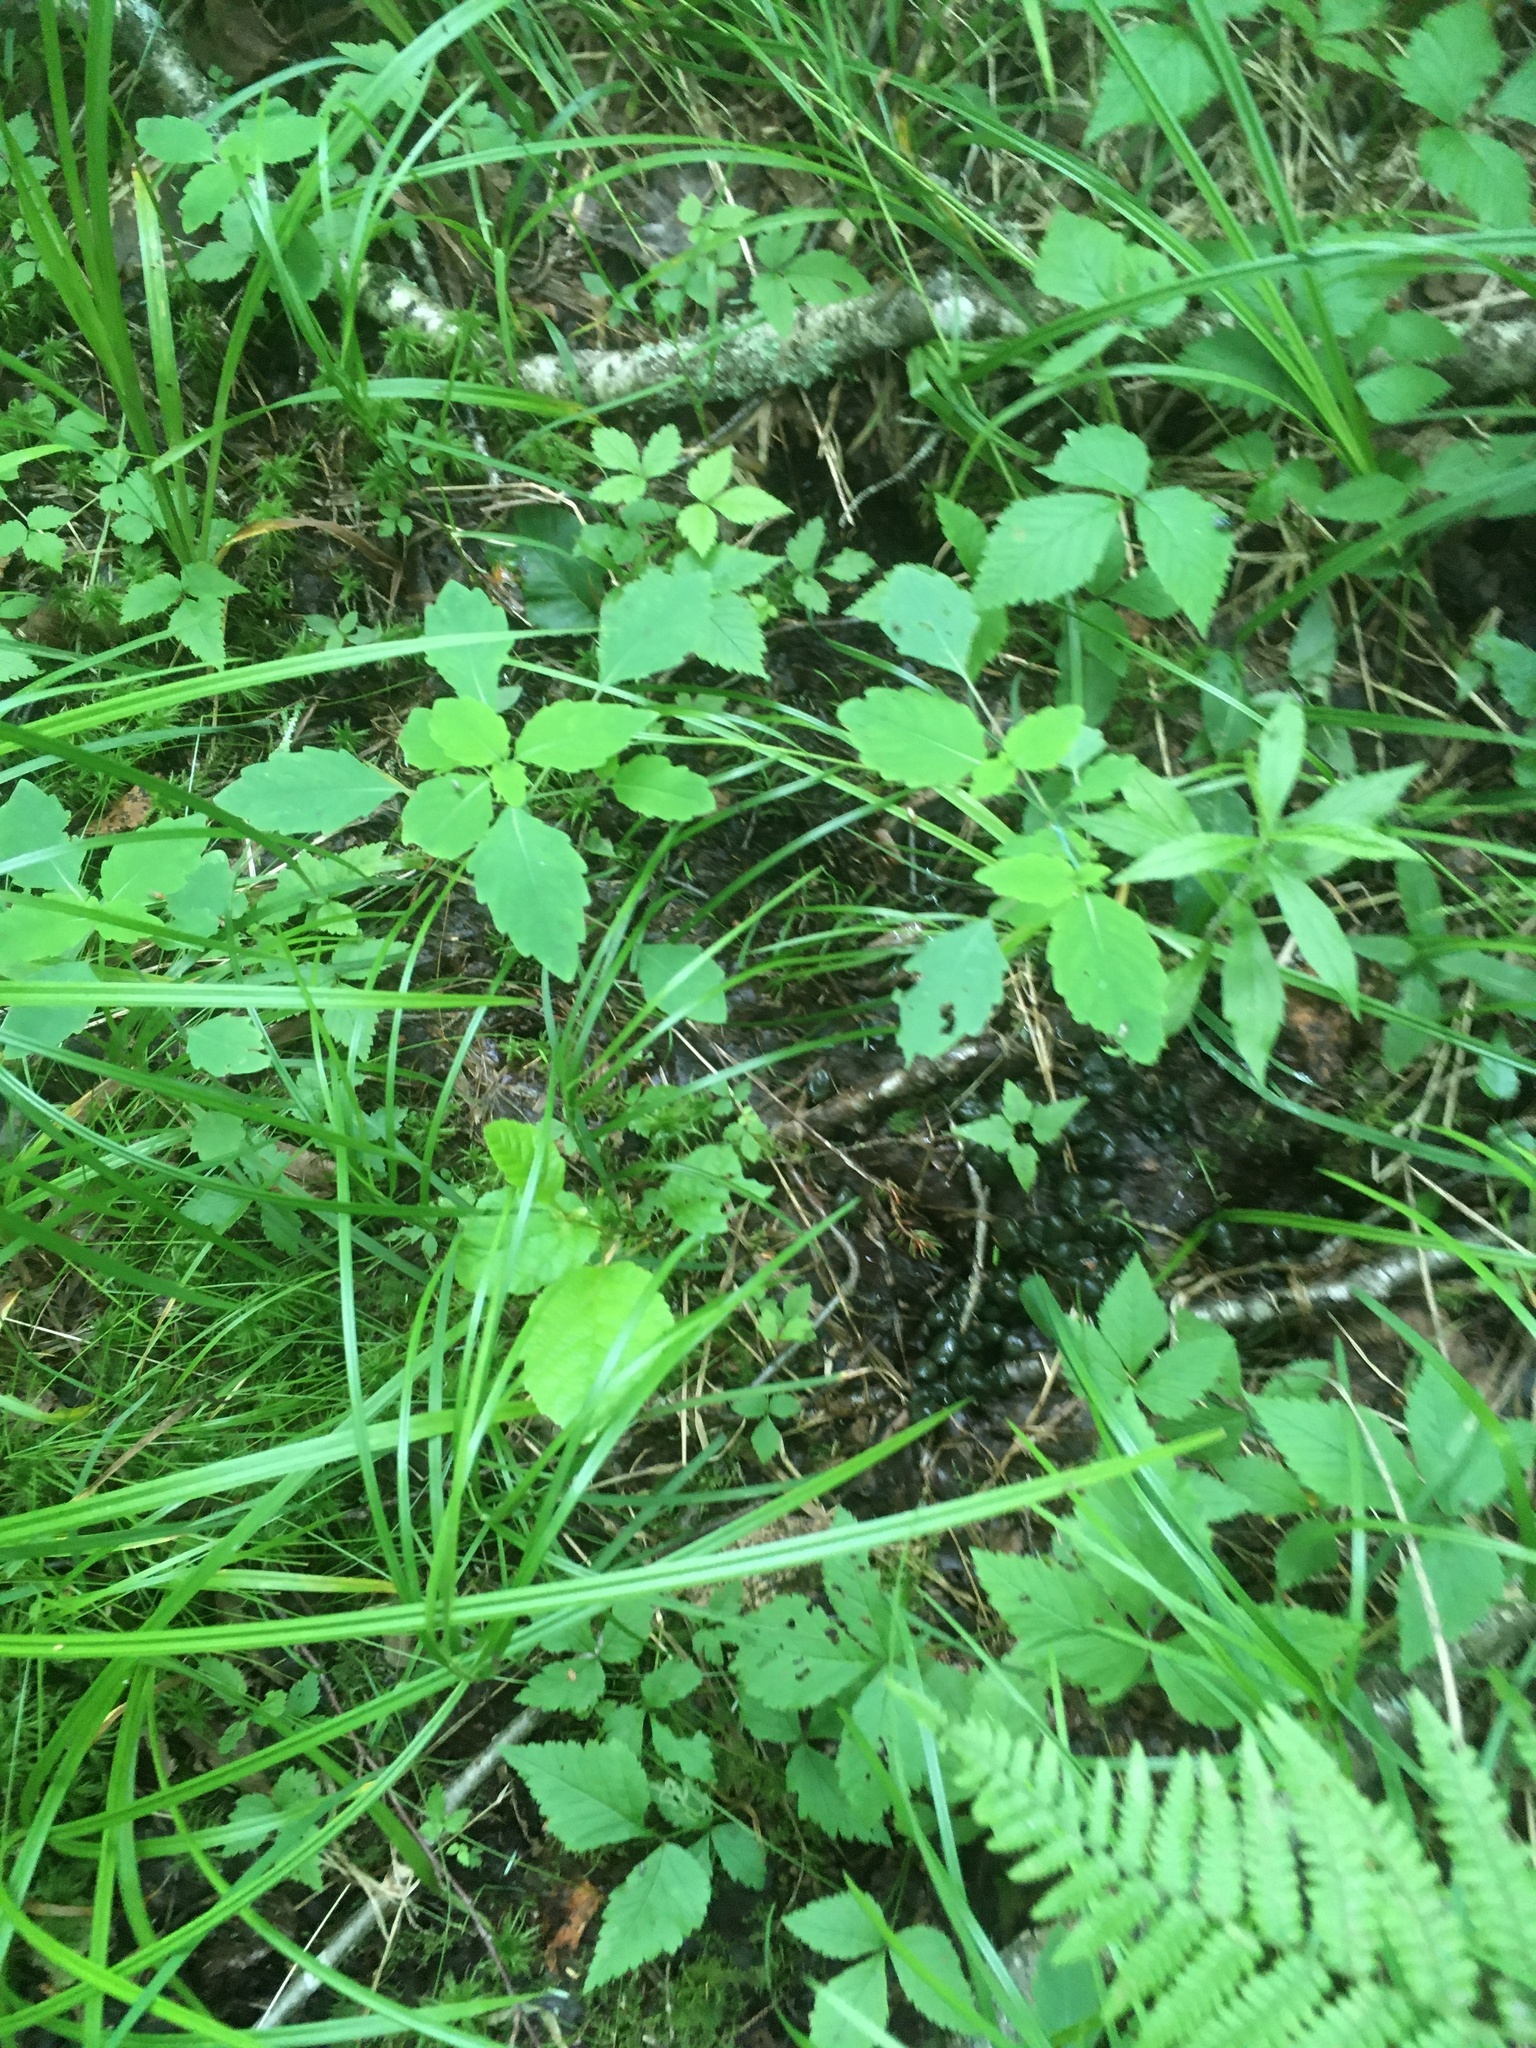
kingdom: Plantae
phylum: Tracheophyta
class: Magnoliopsida
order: Ericales
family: Balsaminaceae
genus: Impatiens
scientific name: Impatiens capensis
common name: Orange balsam
